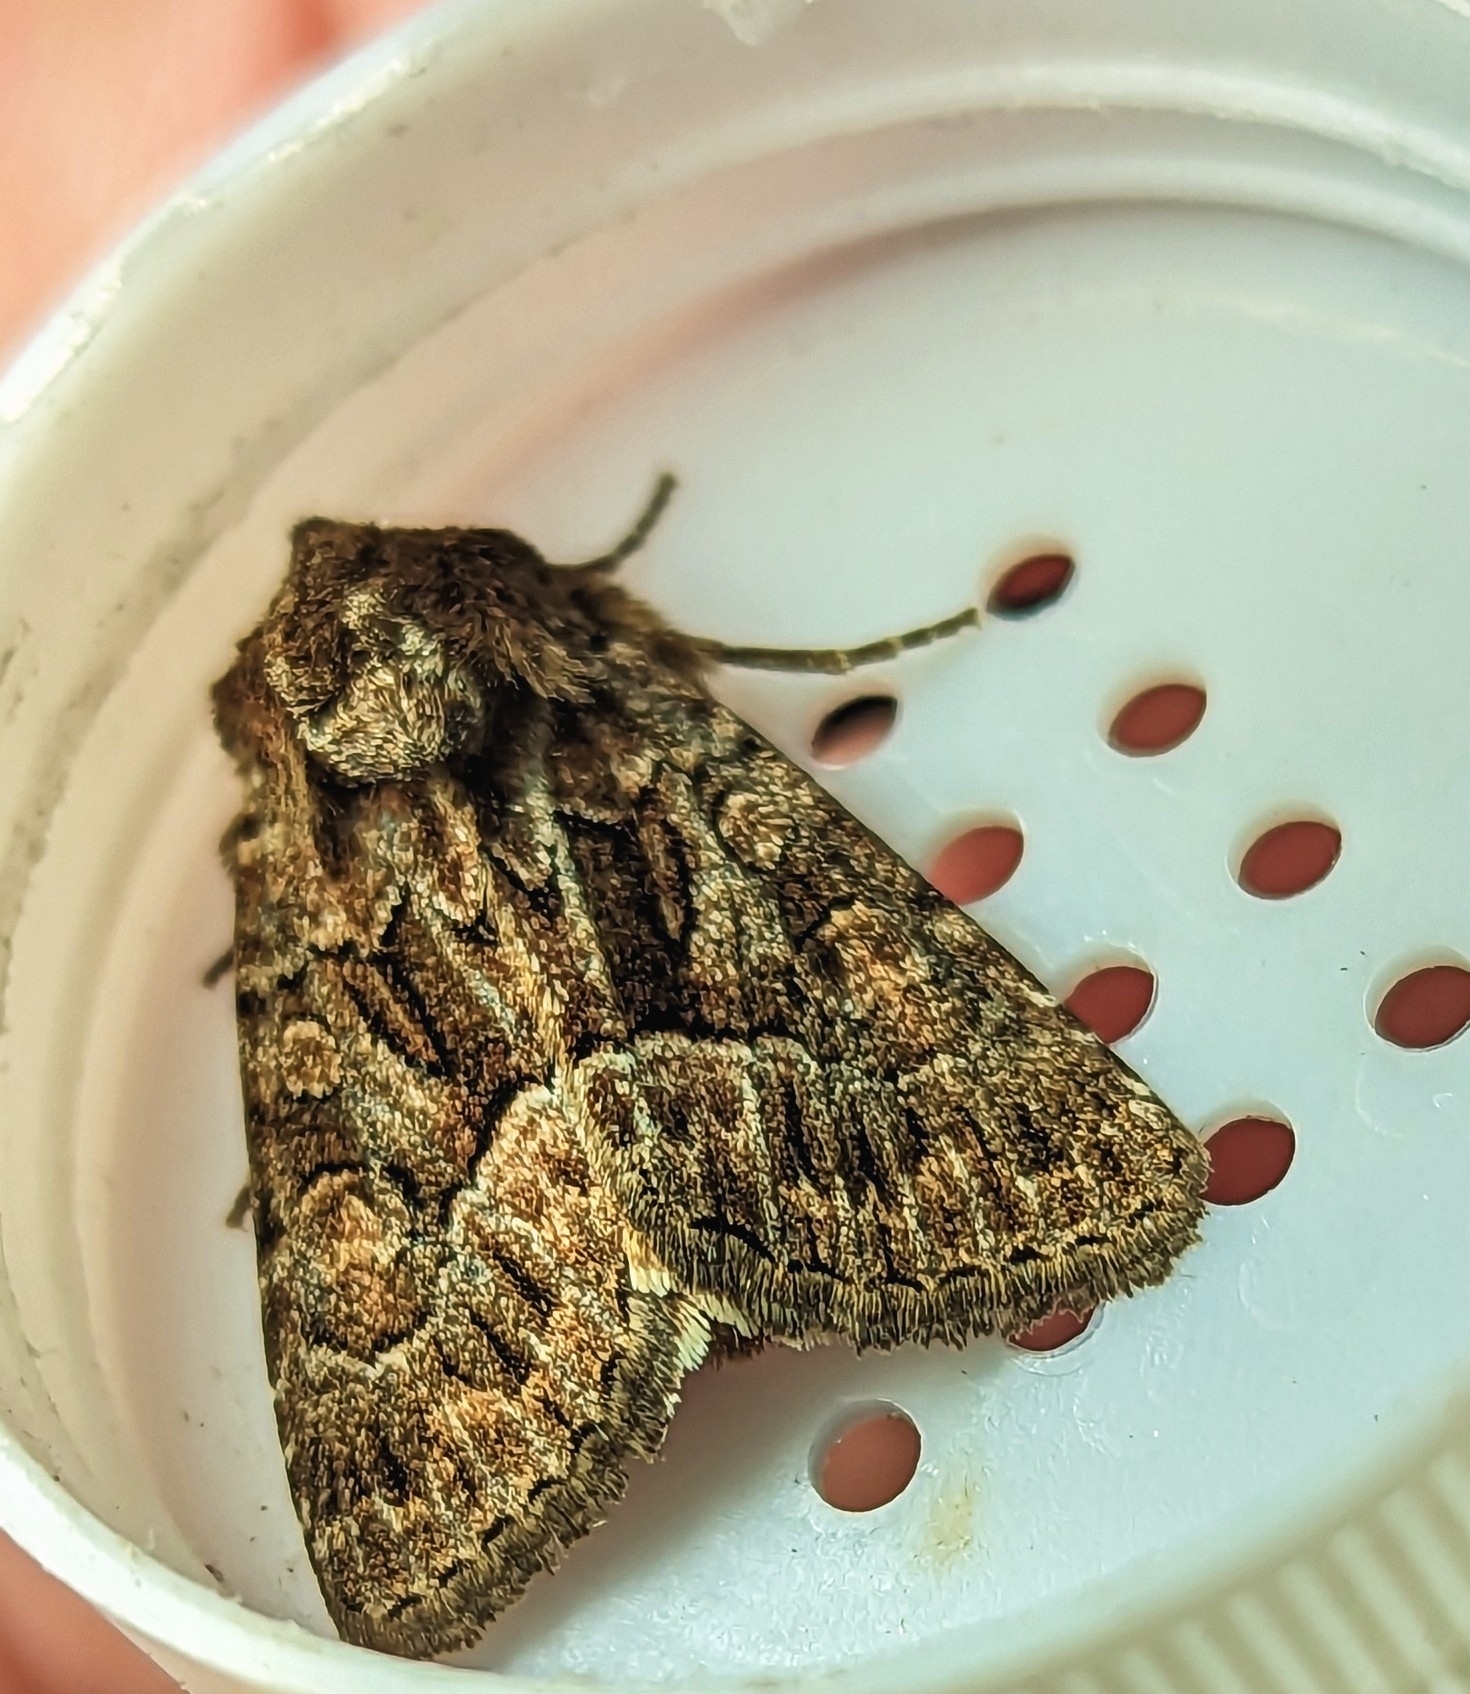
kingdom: Animalia
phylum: Arthropoda
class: Insecta
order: Lepidoptera
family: Noctuidae
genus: Thalpophila
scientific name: Thalpophila matura
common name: Straw underwing
